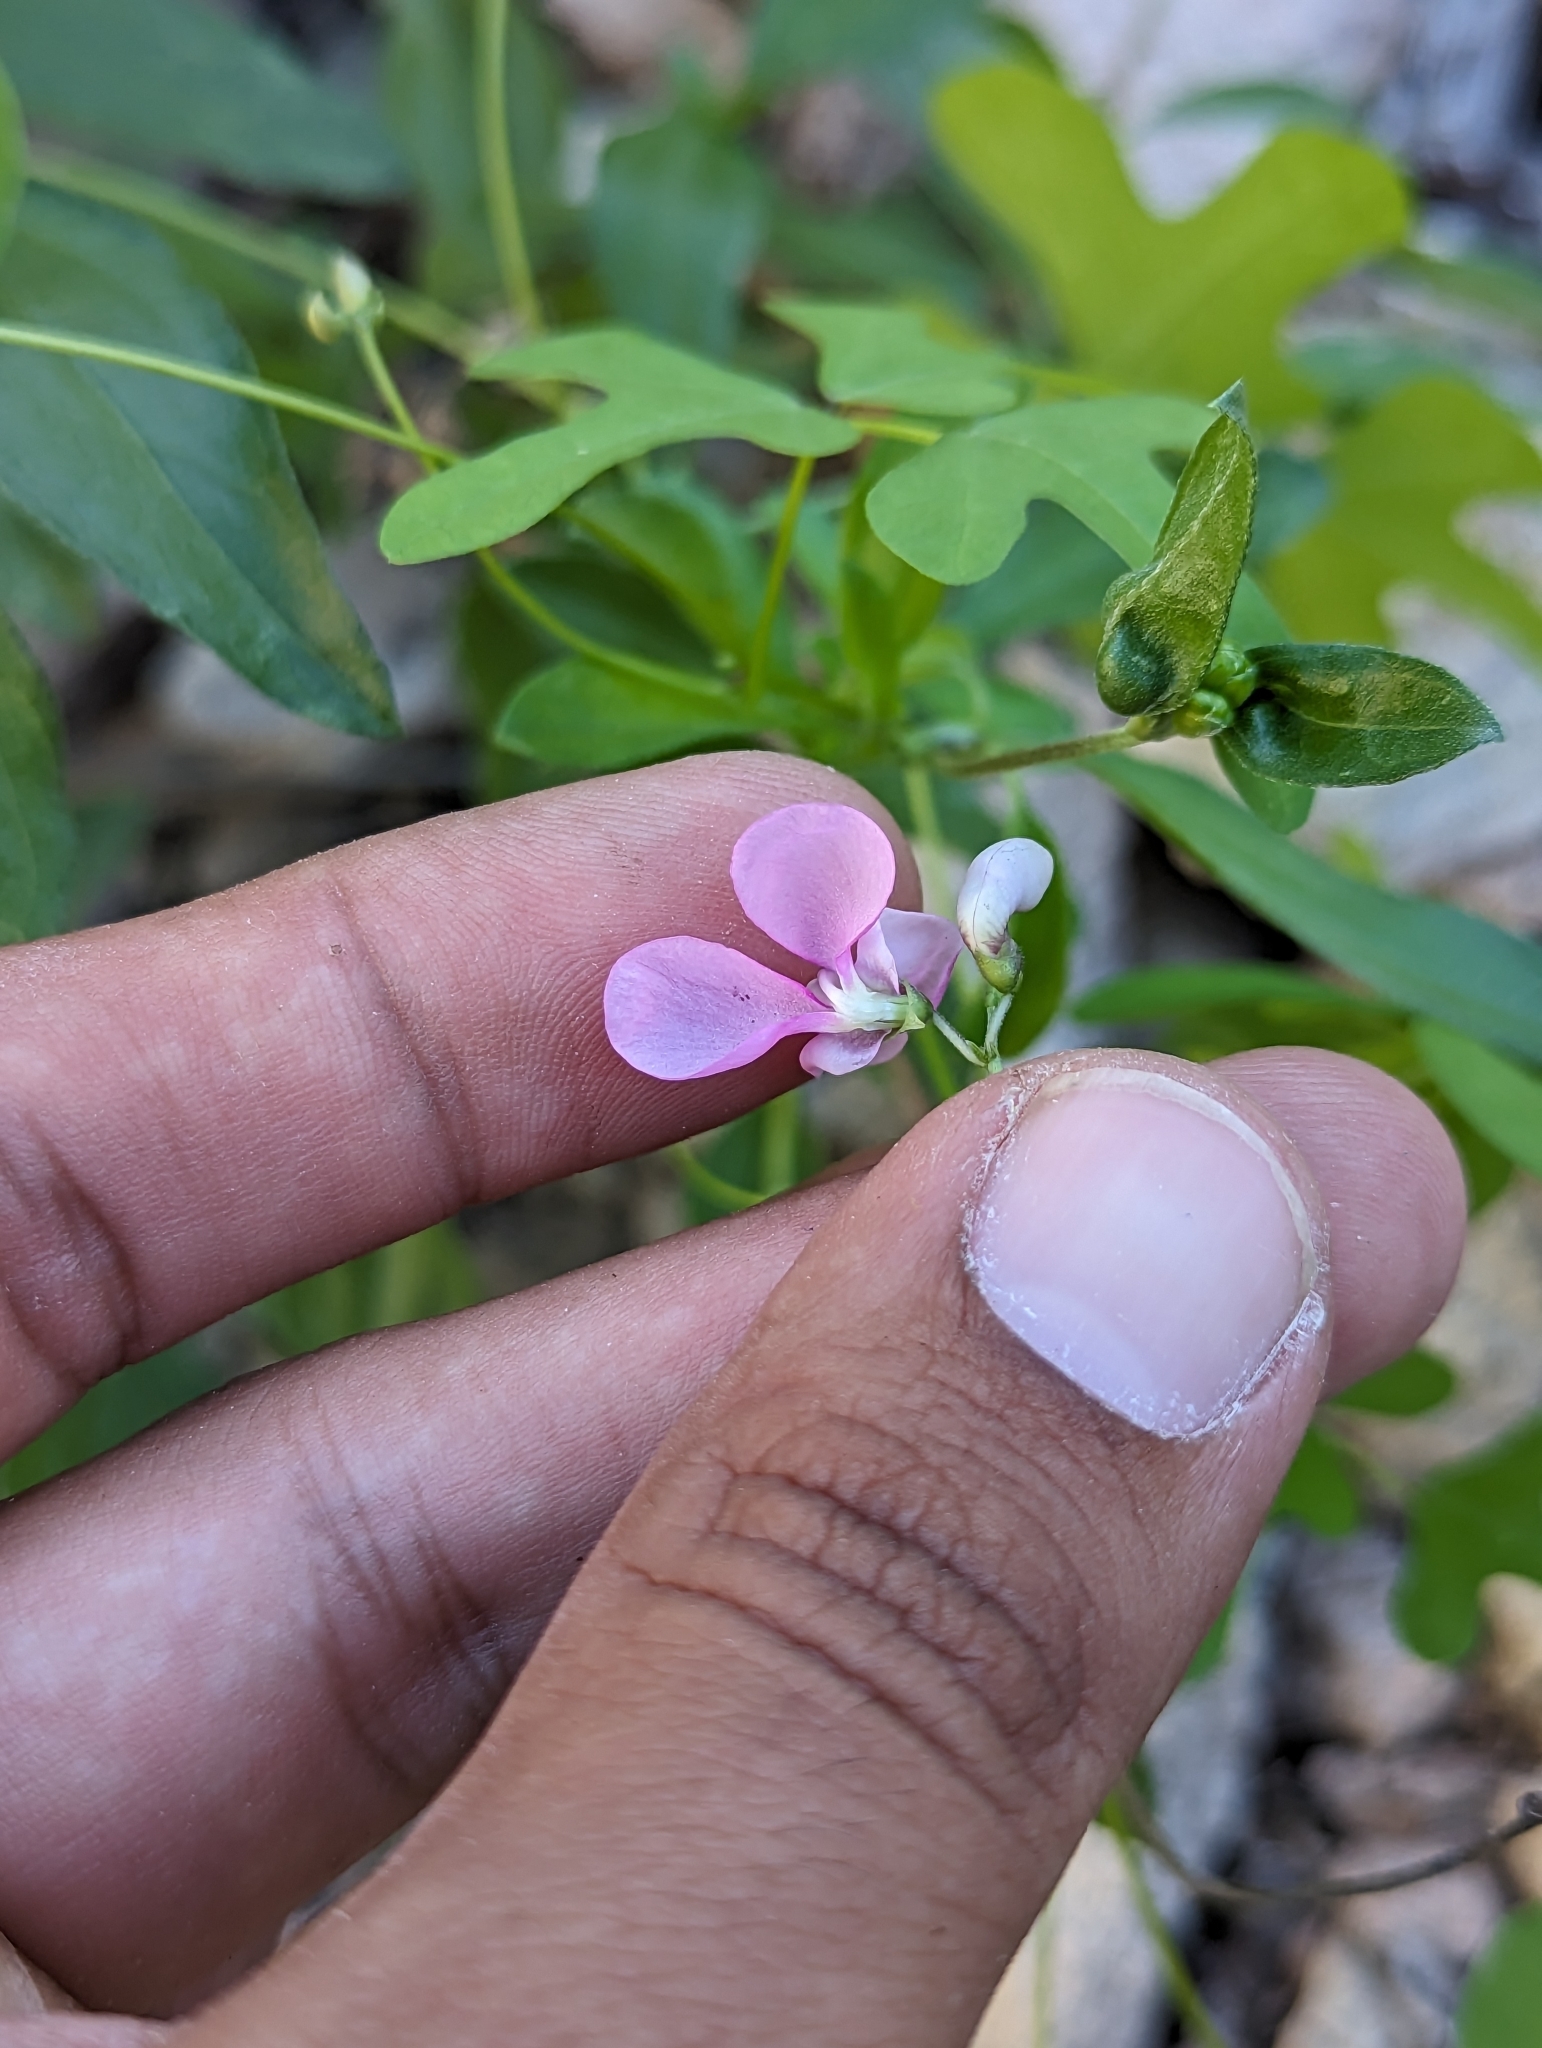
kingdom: Plantae
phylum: Tracheophyta
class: Magnoliopsida
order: Fabales
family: Fabaceae
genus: Phaseolus
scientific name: Phaseolus filiformis
